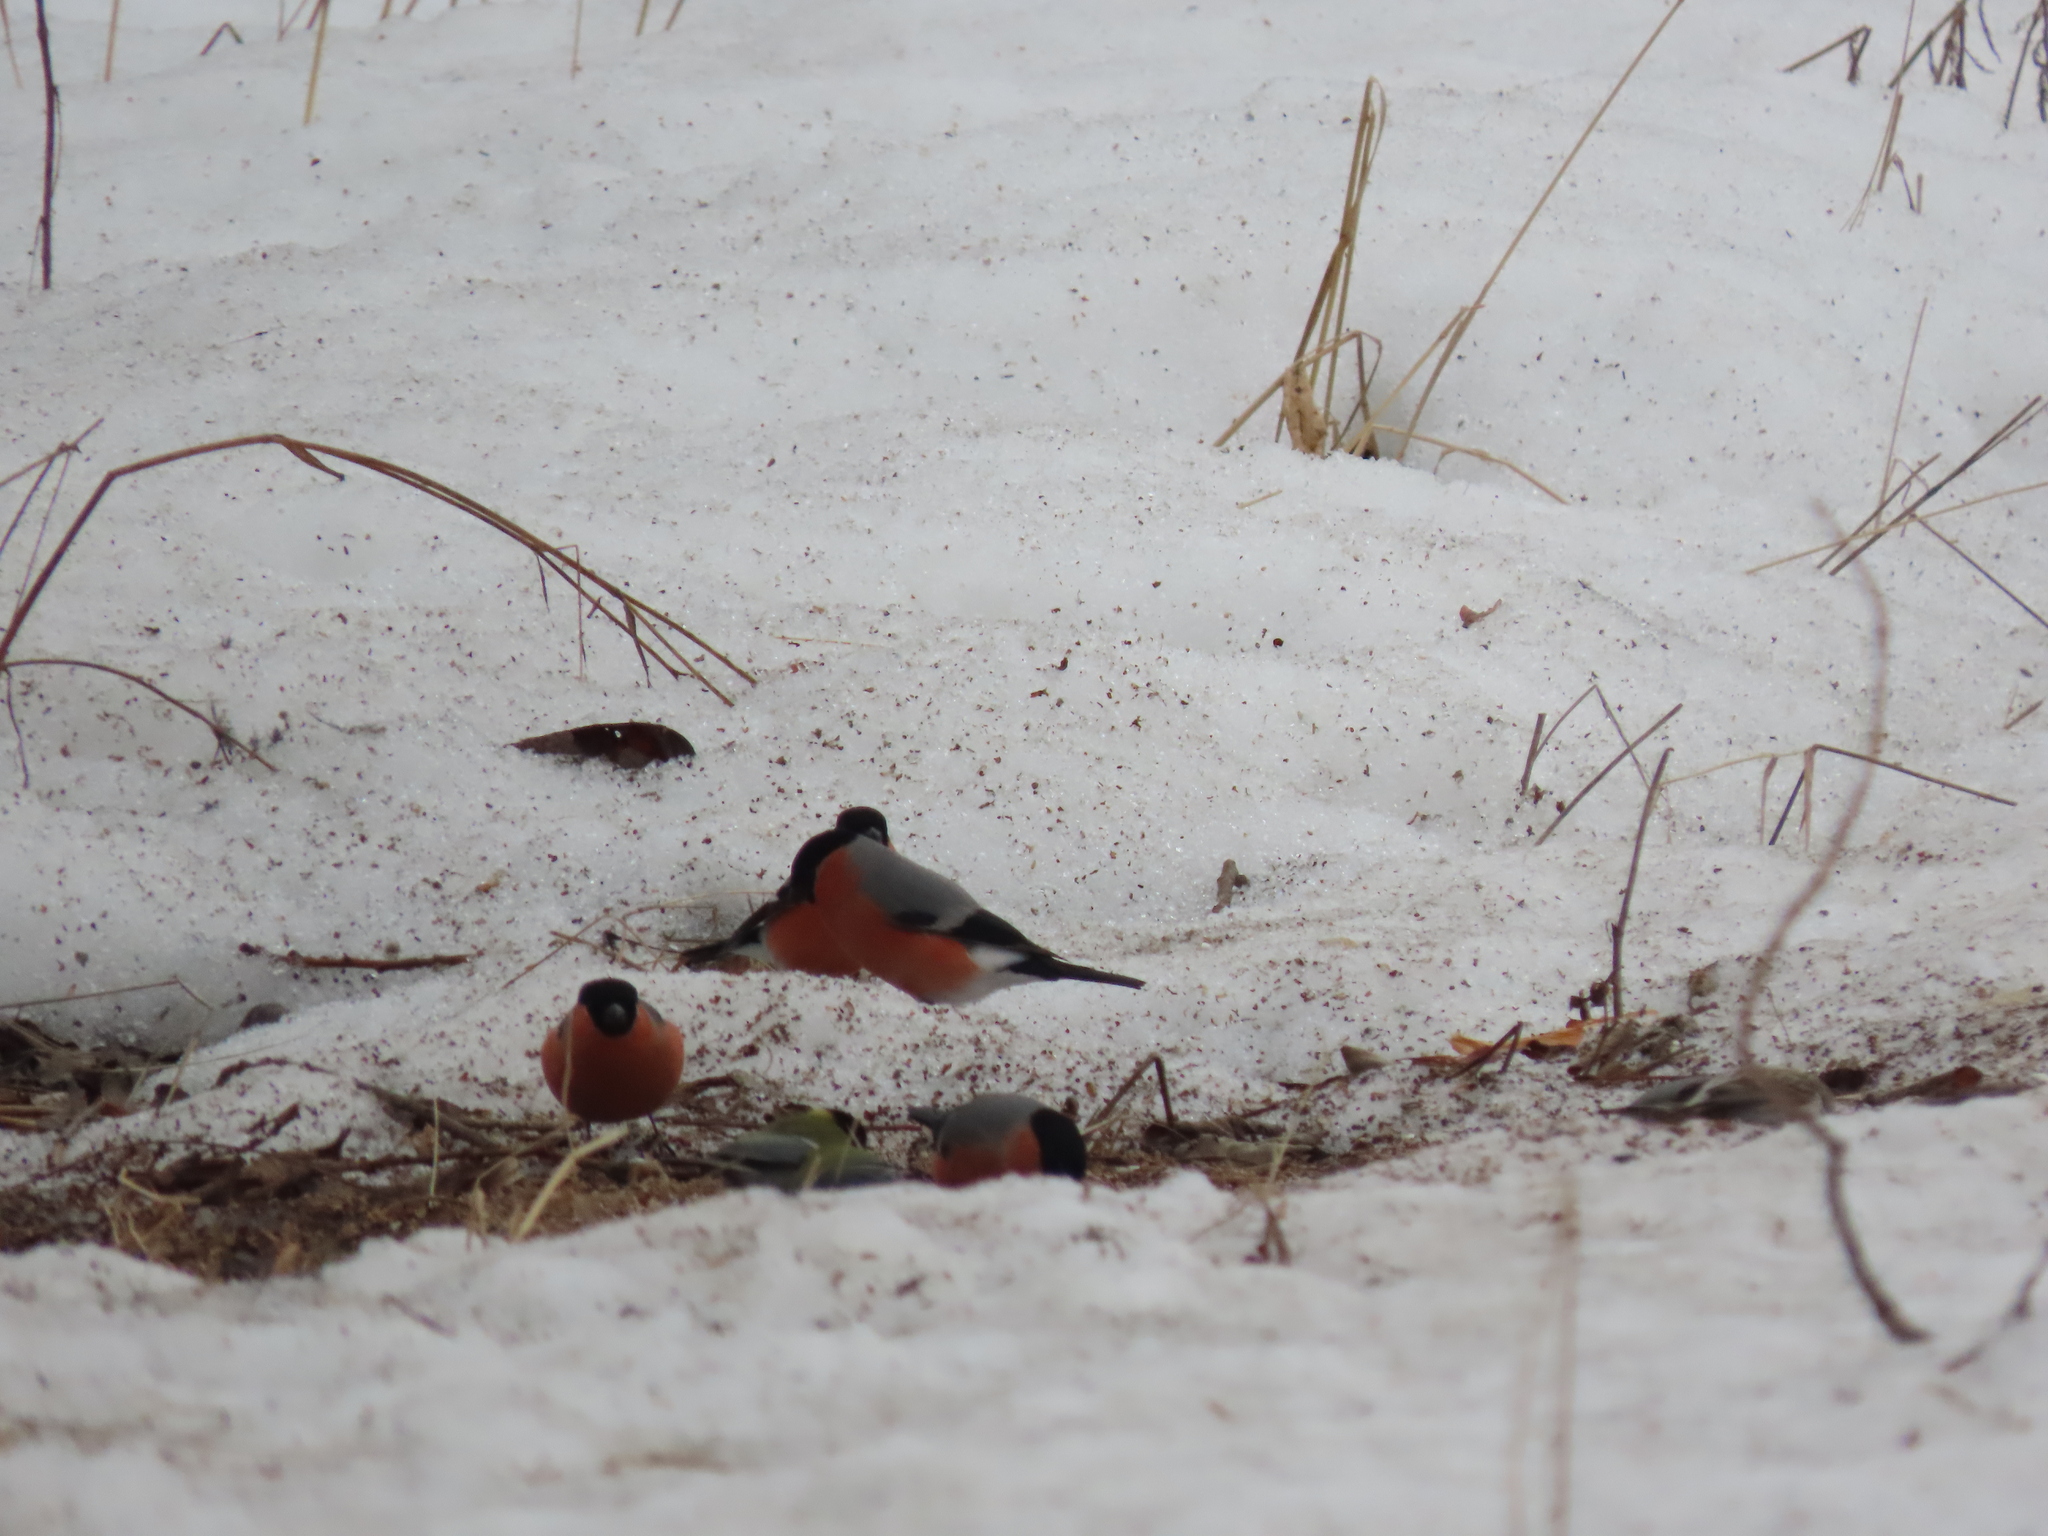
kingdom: Animalia
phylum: Chordata
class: Aves
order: Passeriformes
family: Fringillidae
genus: Pyrrhula
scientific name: Pyrrhula pyrrhula
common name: Eurasian bullfinch
